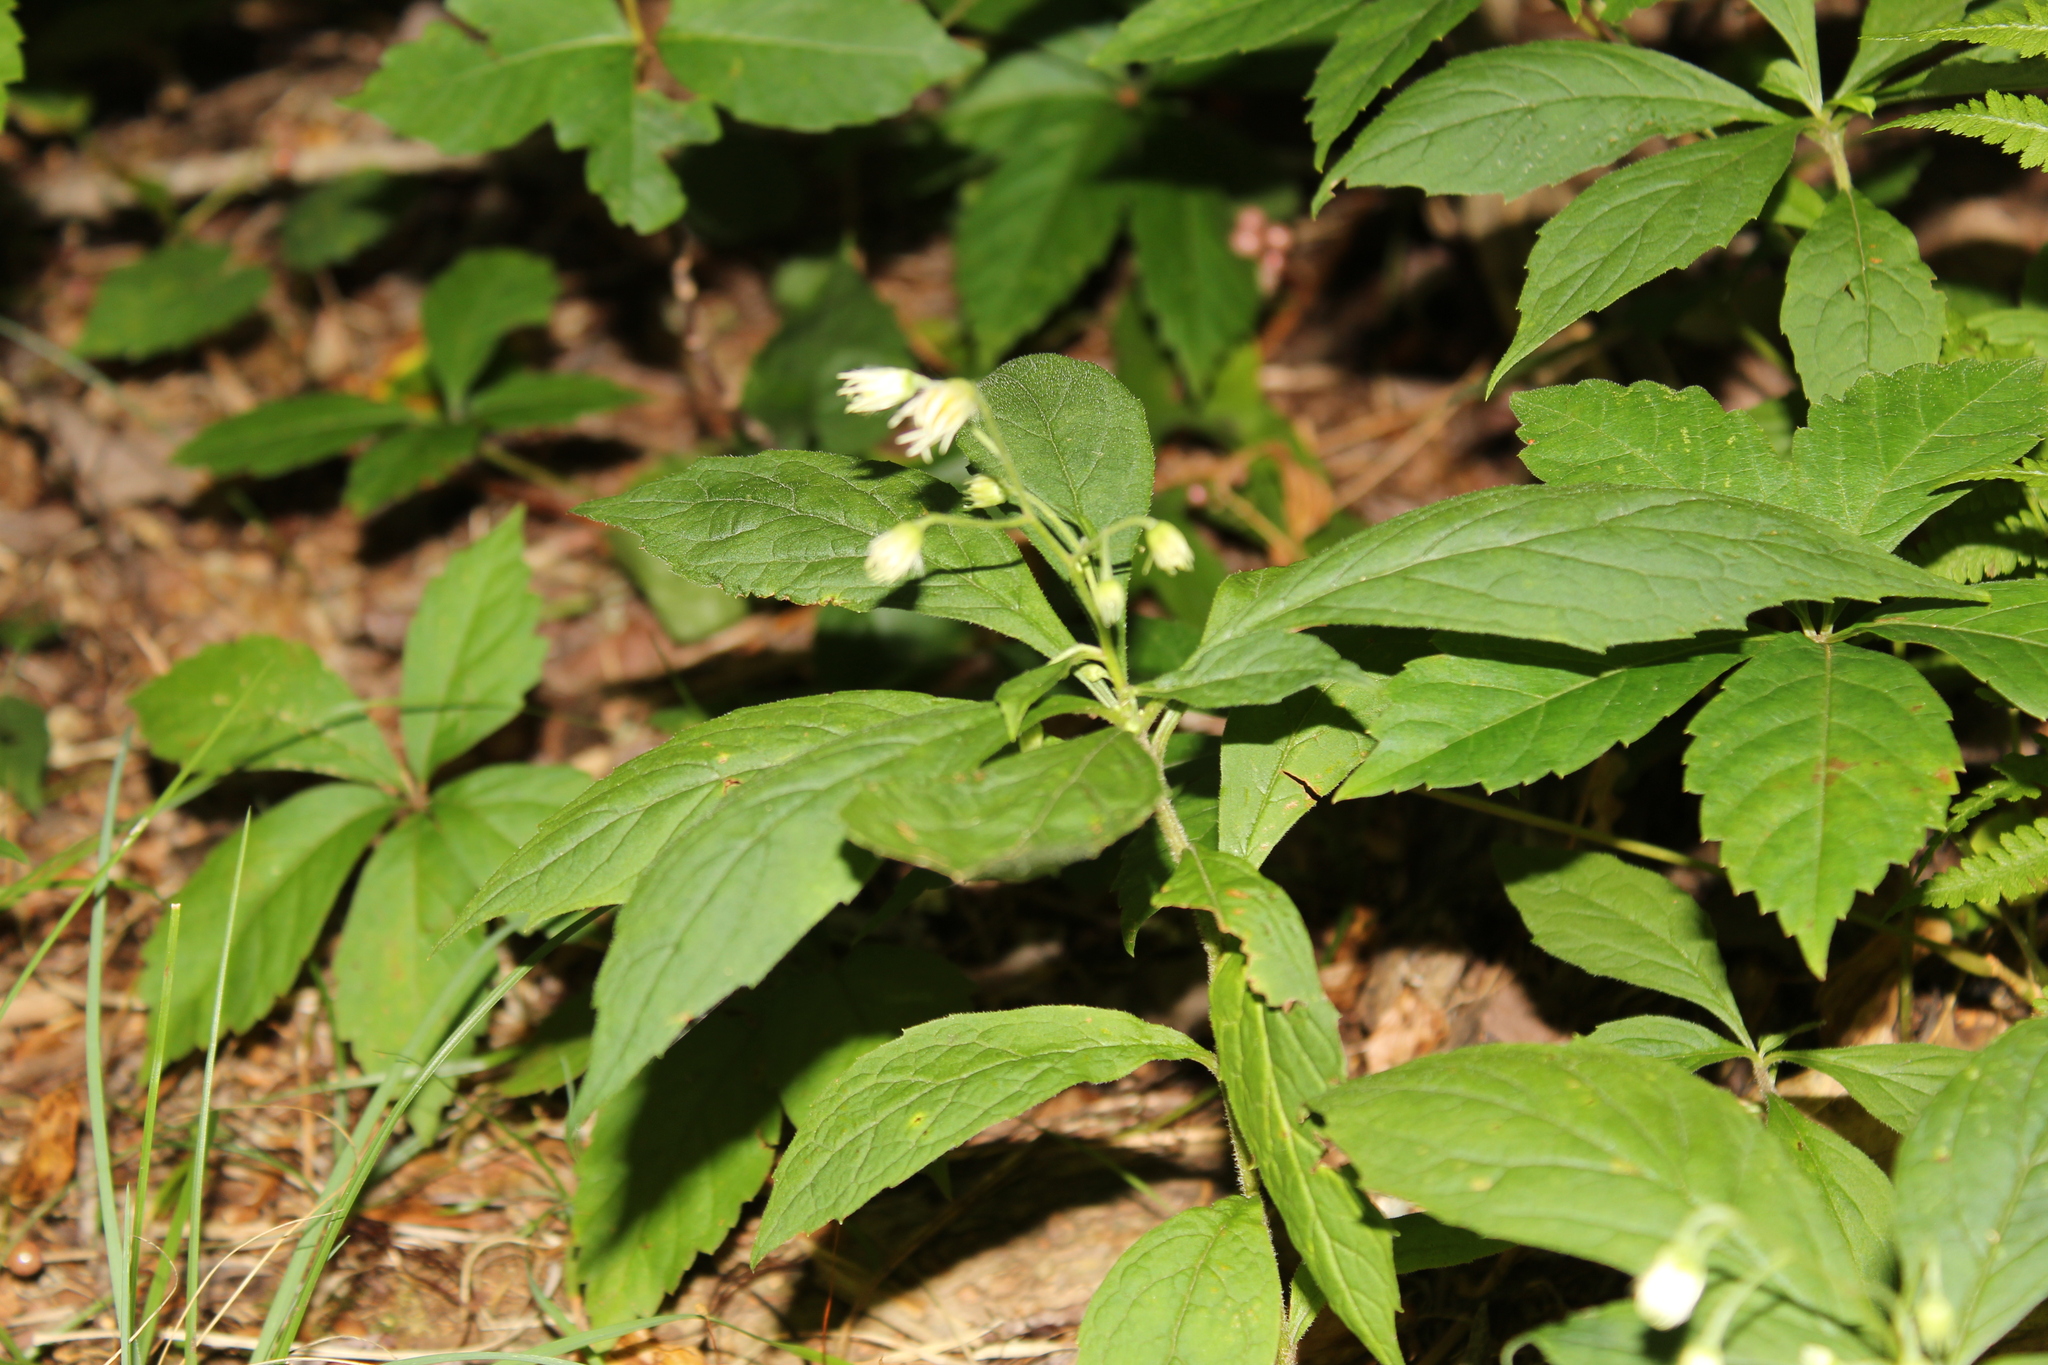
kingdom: Plantae
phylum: Tracheophyta
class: Magnoliopsida
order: Asterales
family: Asteraceae
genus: Oclemena
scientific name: Oclemena acuminata
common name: Mountain aster
